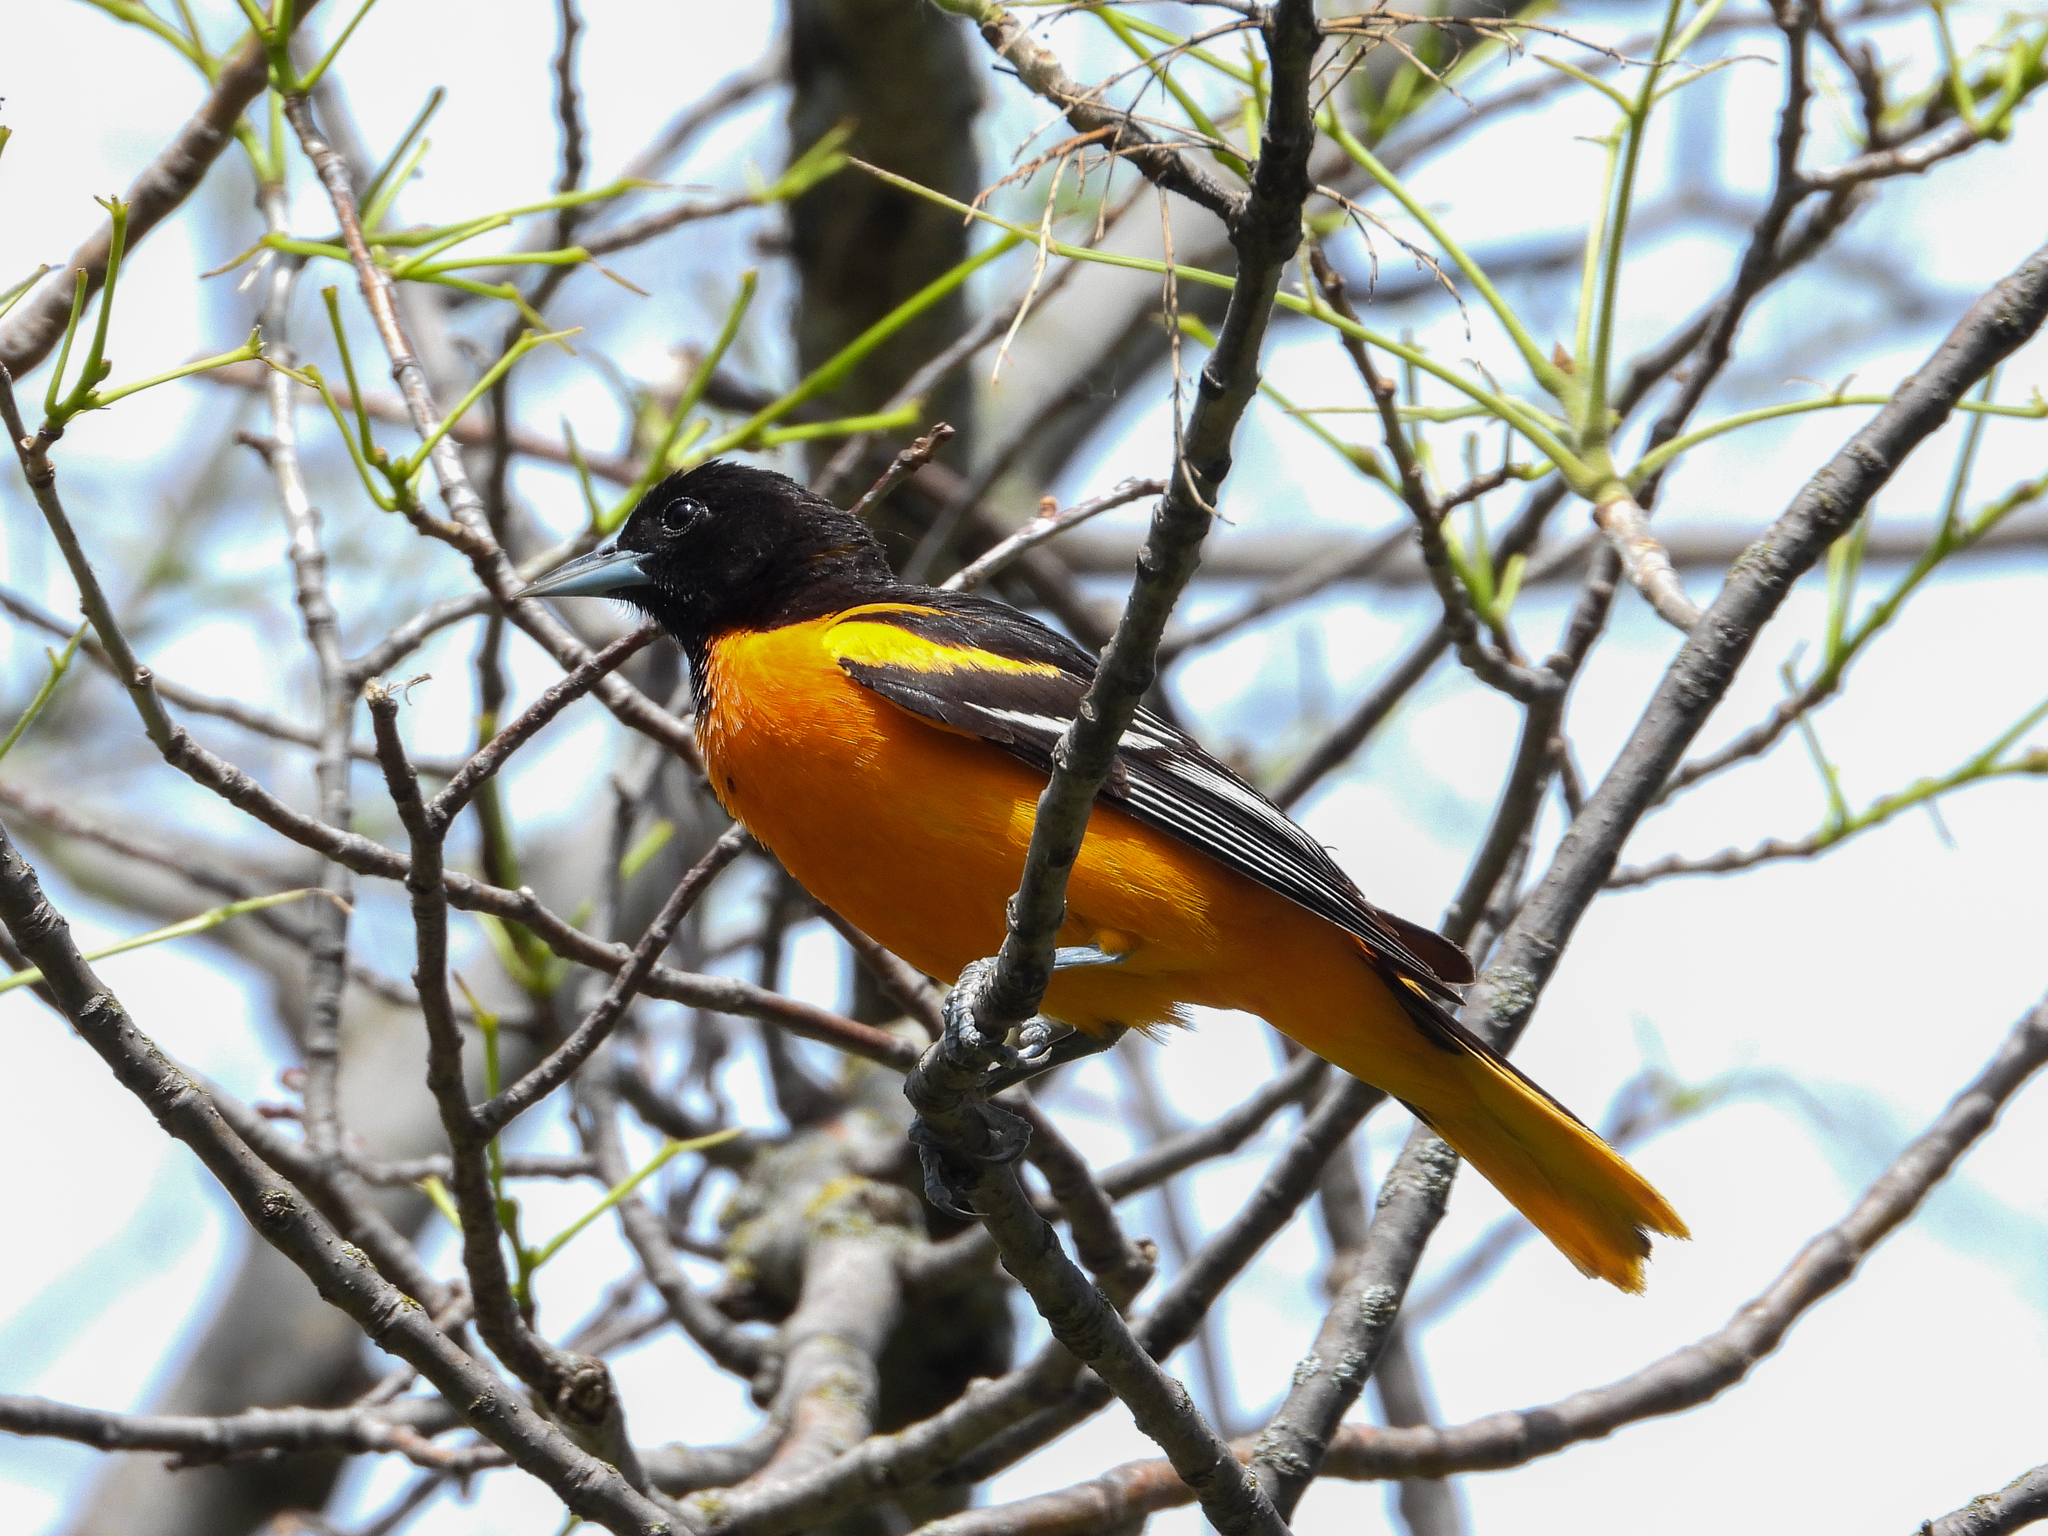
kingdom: Animalia
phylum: Chordata
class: Aves
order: Passeriformes
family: Icteridae
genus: Icterus
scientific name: Icterus galbula
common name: Baltimore oriole
